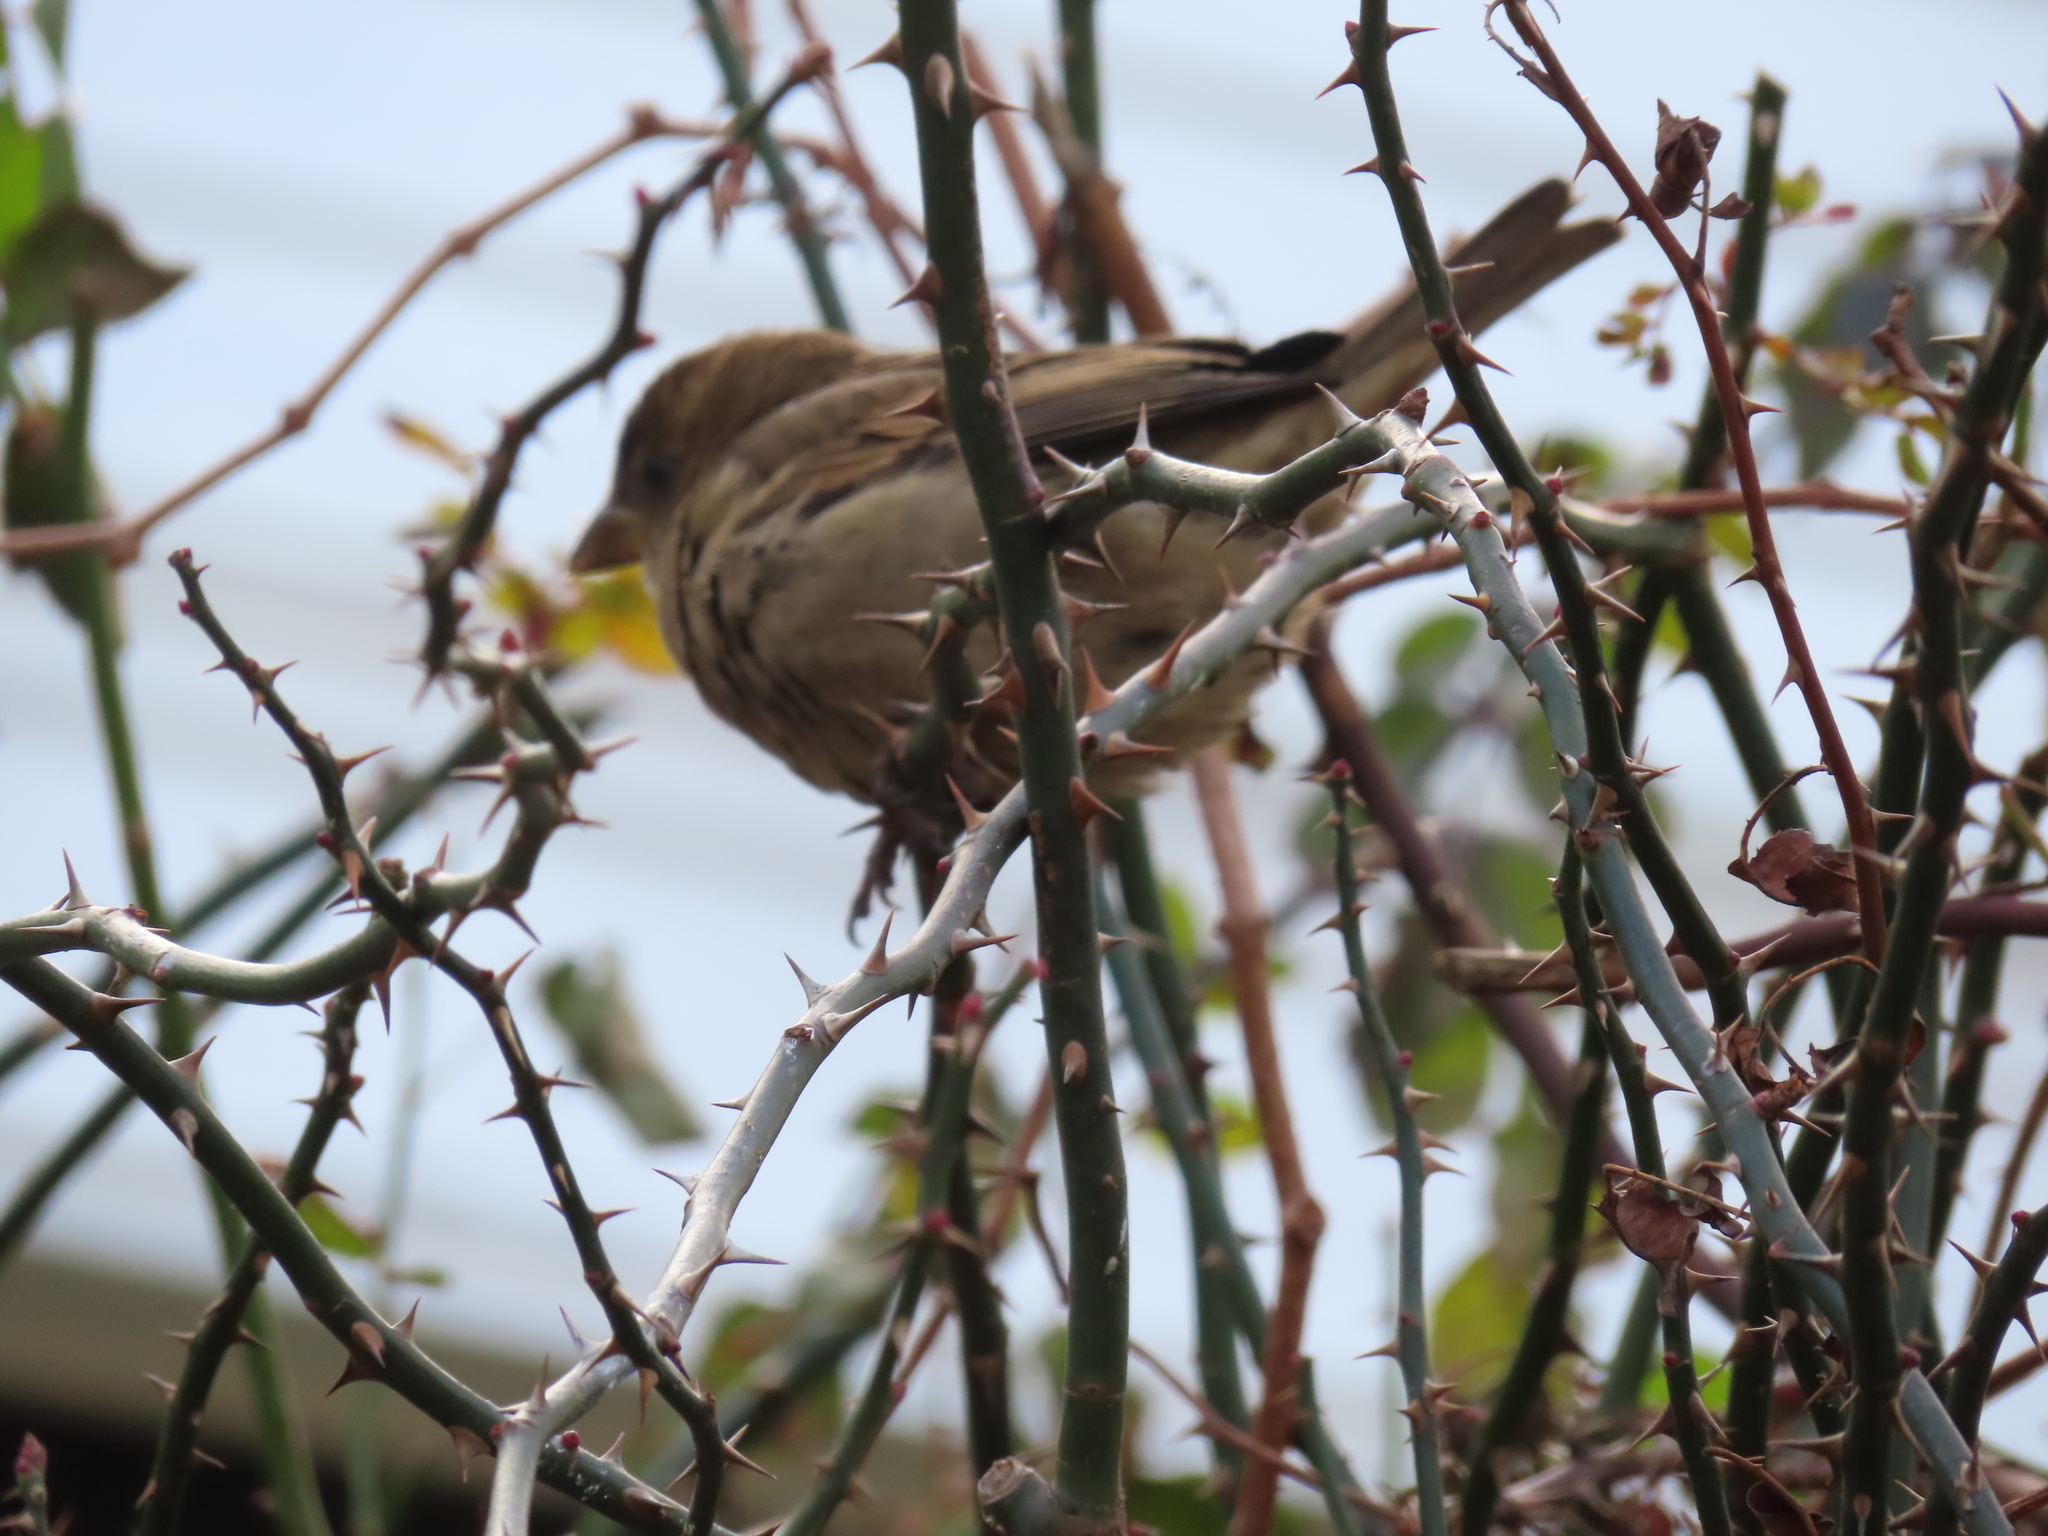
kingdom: Animalia
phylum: Chordata
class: Aves
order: Passeriformes
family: Passeridae
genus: Passer
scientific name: Passer domesticus
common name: House sparrow
